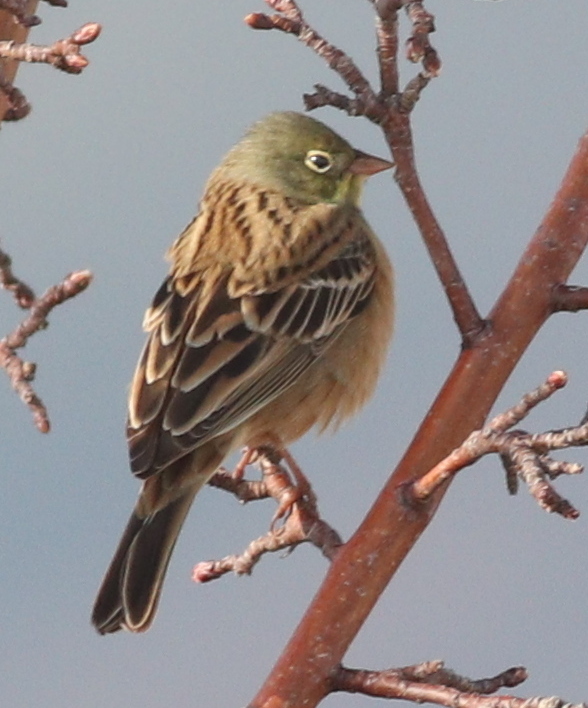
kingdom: Animalia
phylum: Chordata
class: Aves
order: Passeriformes
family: Emberizidae
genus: Emberiza
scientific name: Emberiza hortulana
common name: Ortolan bunting
